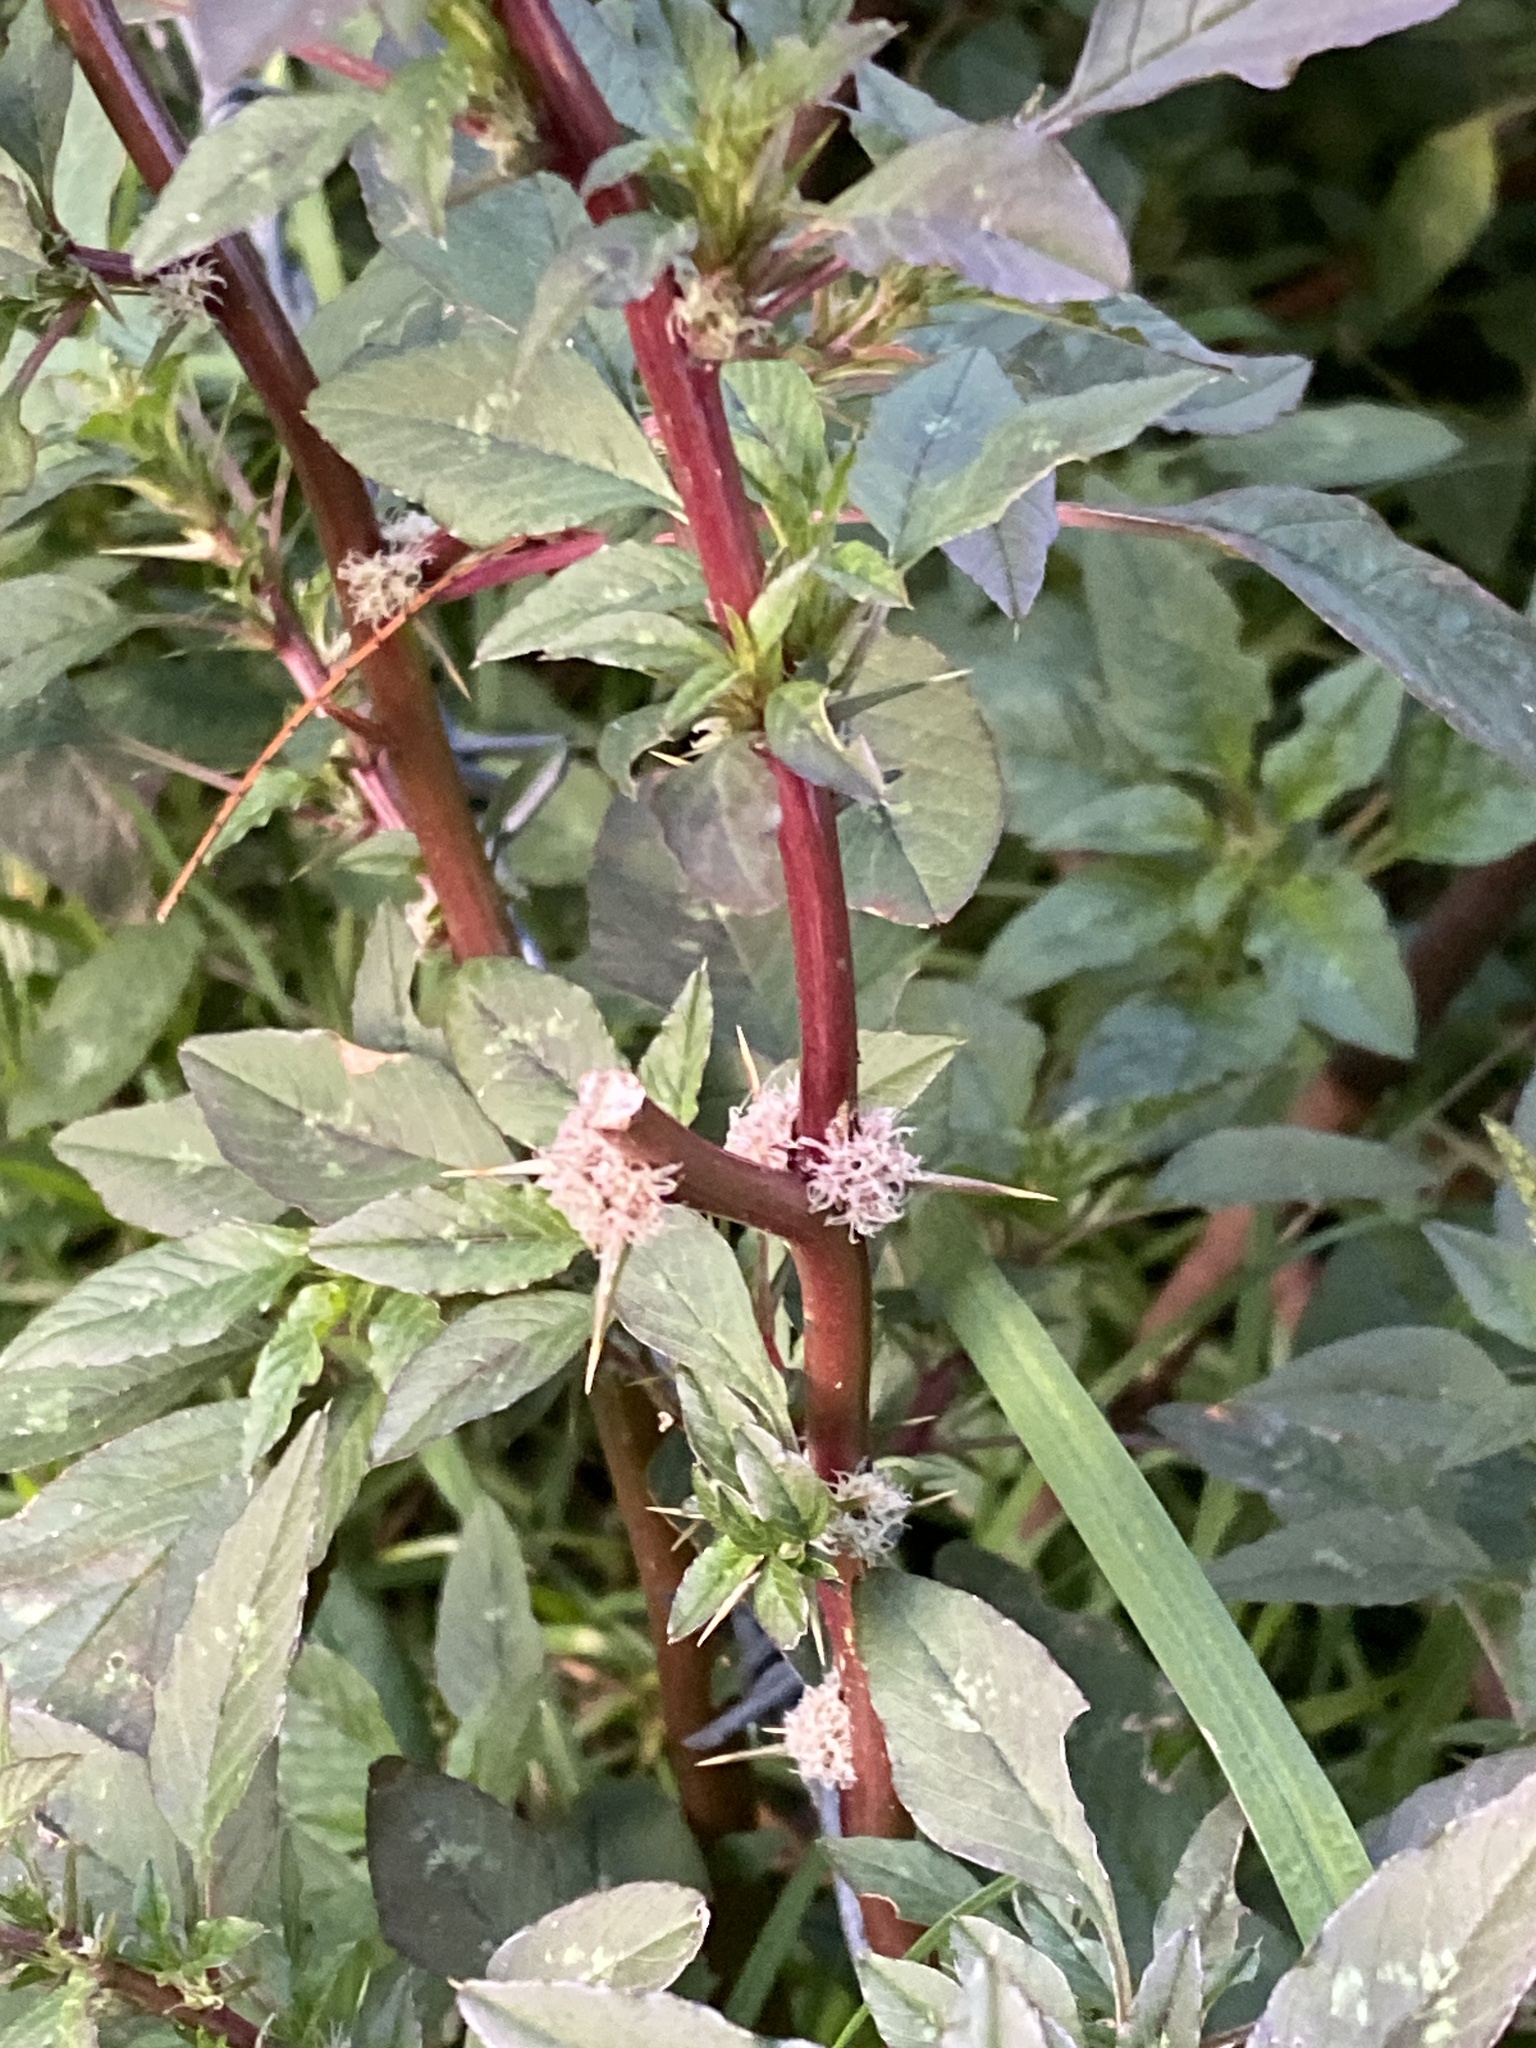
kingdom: Plantae
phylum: Tracheophyta
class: Magnoliopsida
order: Caryophyllales
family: Amaranthaceae
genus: Amaranthus
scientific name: Amaranthus spinosus
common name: Spiny amaranth
